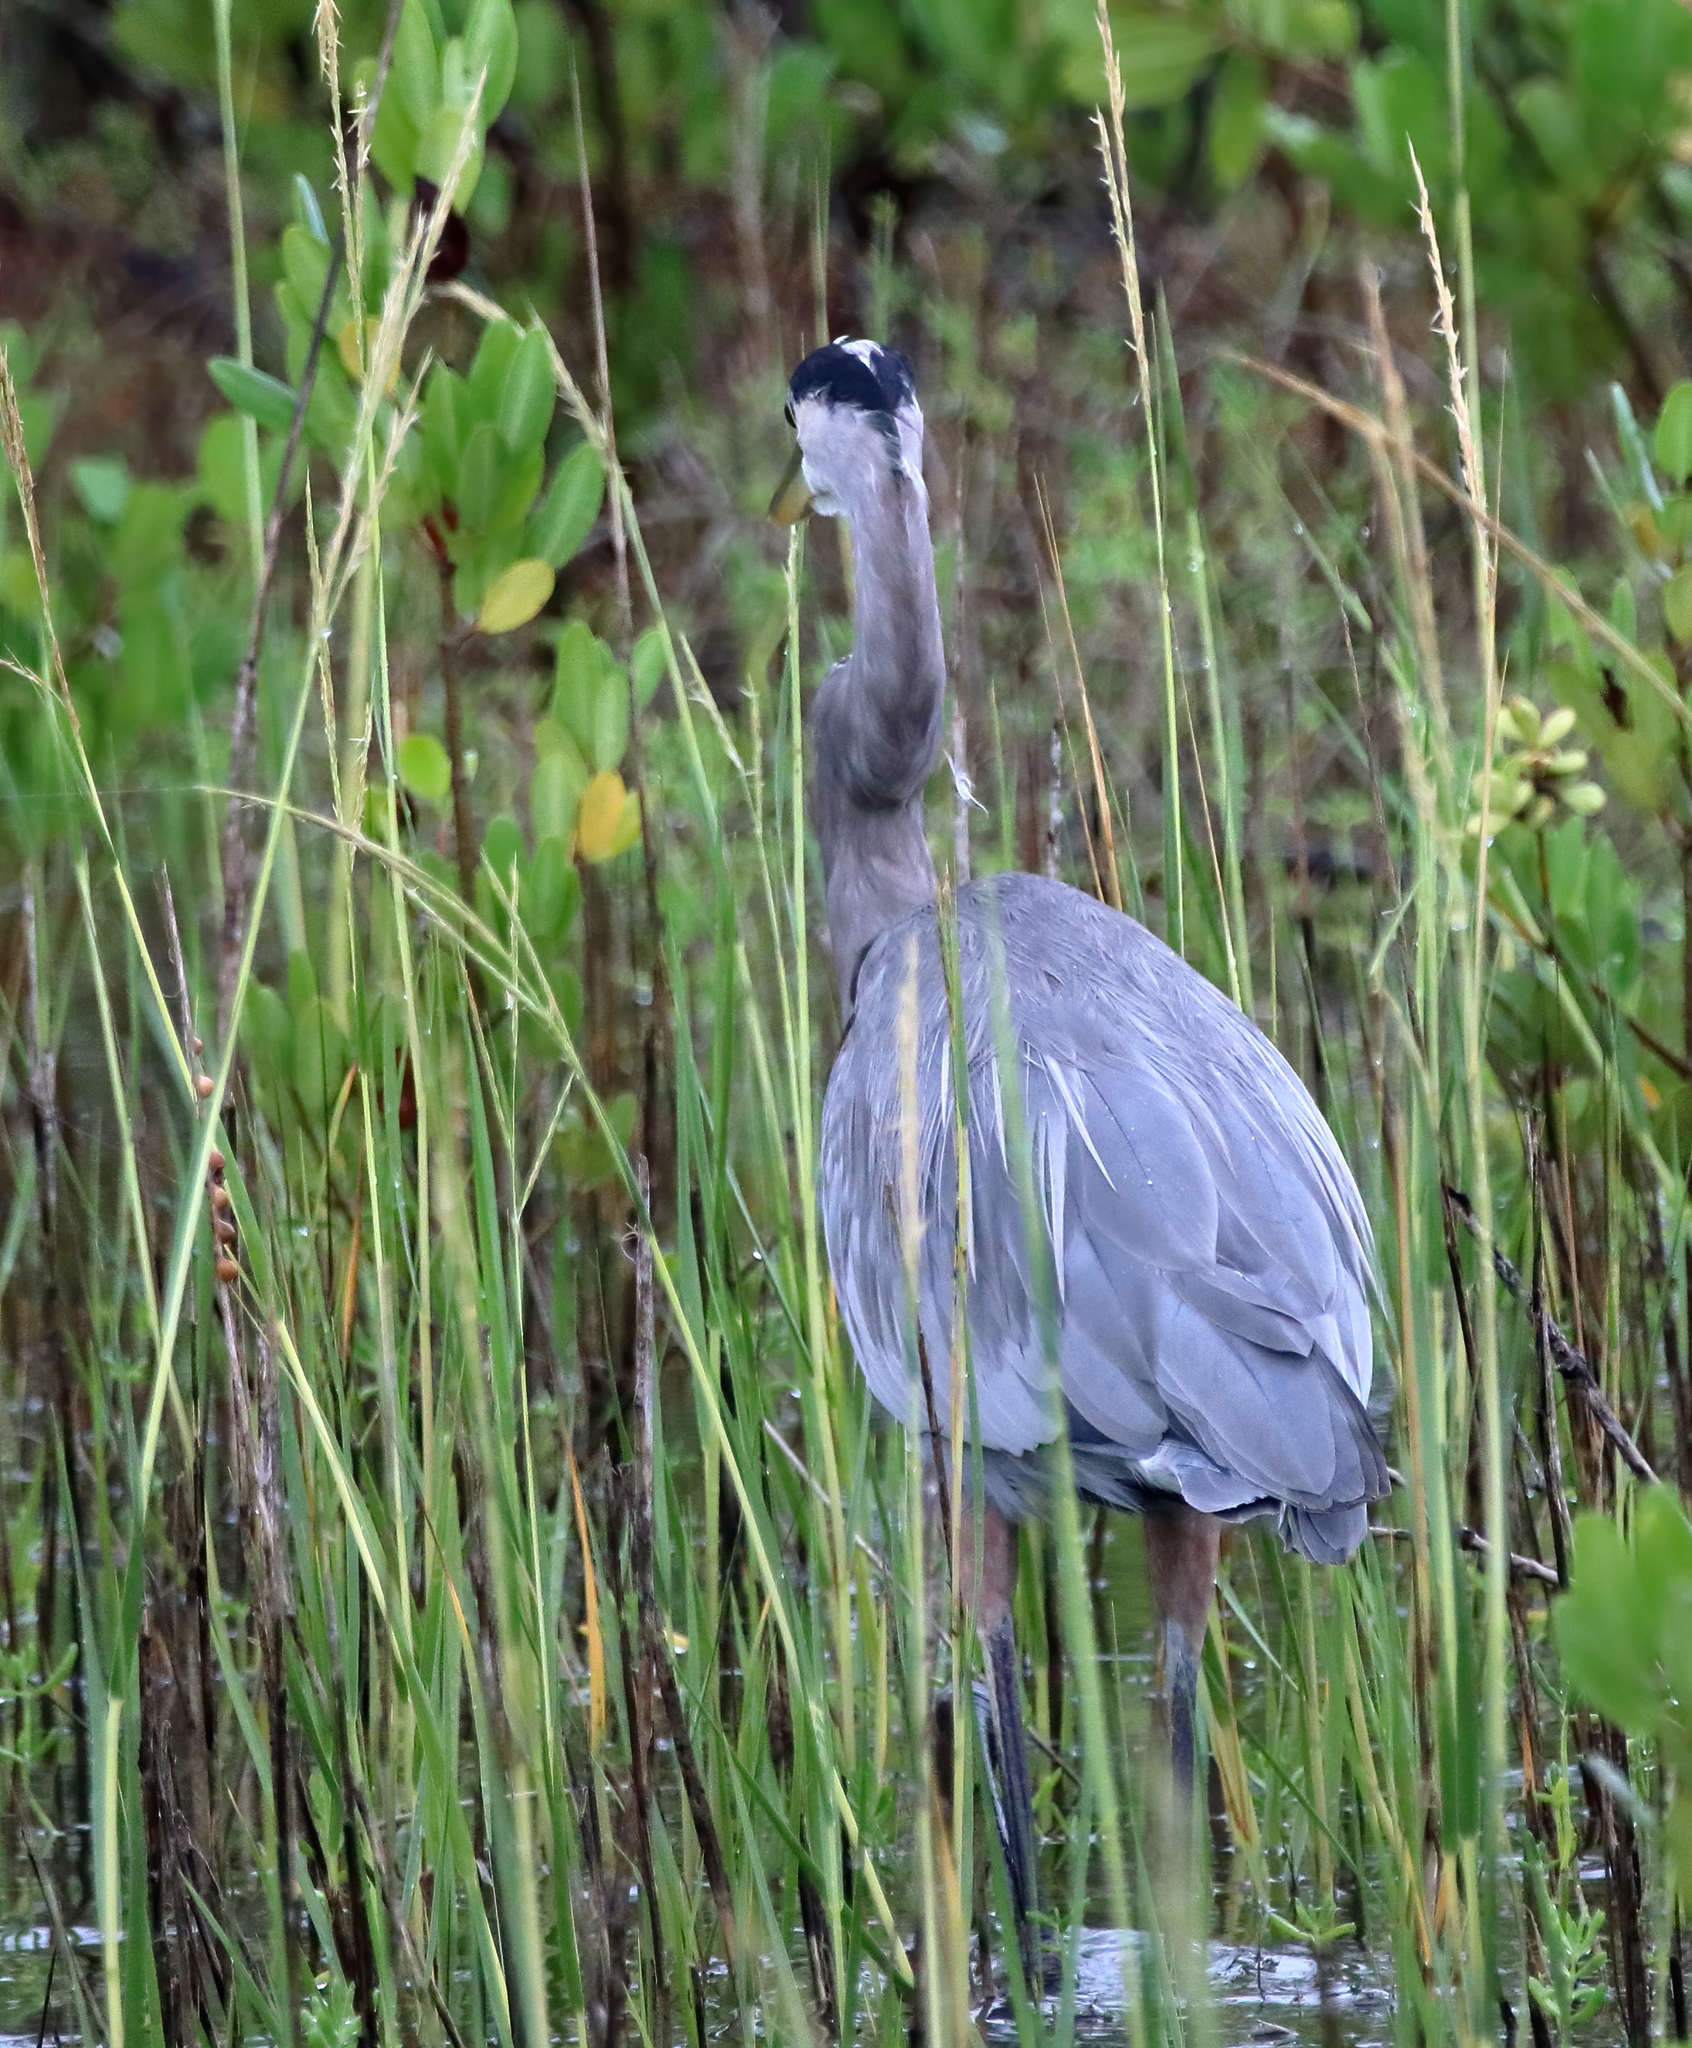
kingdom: Animalia
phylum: Chordata
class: Aves
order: Pelecaniformes
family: Ardeidae
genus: Ardea
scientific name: Ardea herodias
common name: Great blue heron
